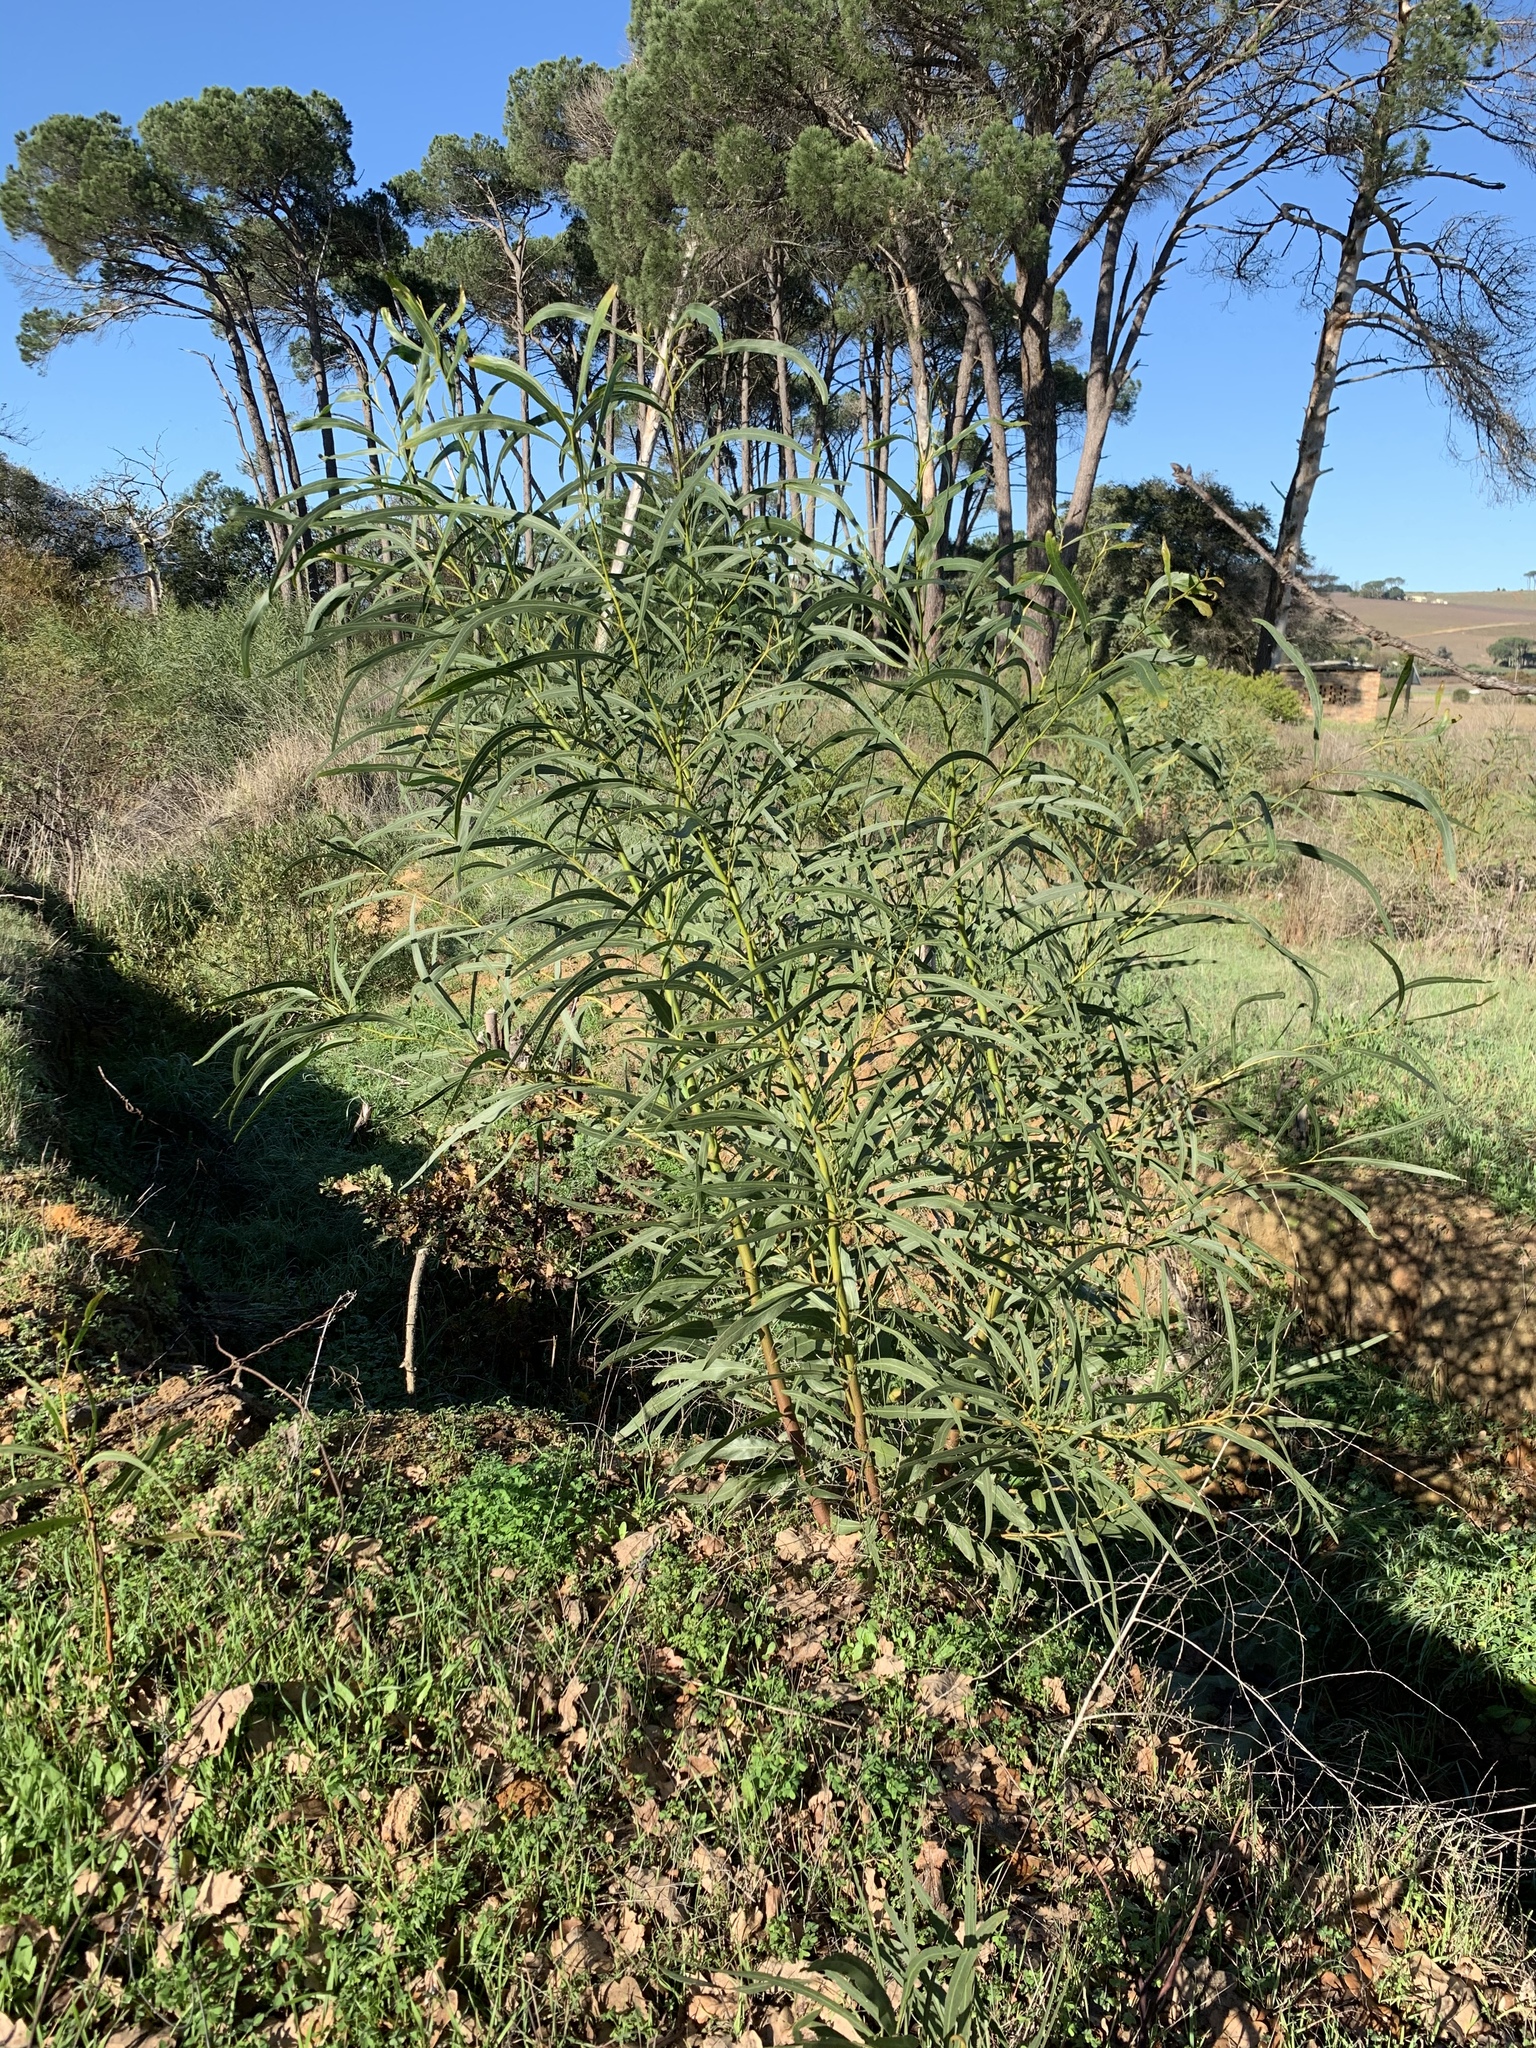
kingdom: Plantae
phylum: Tracheophyta
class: Magnoliopsida
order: Fabales
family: Fabaceae
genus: Acacia
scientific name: Acacia saligna
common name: Orange wattle
